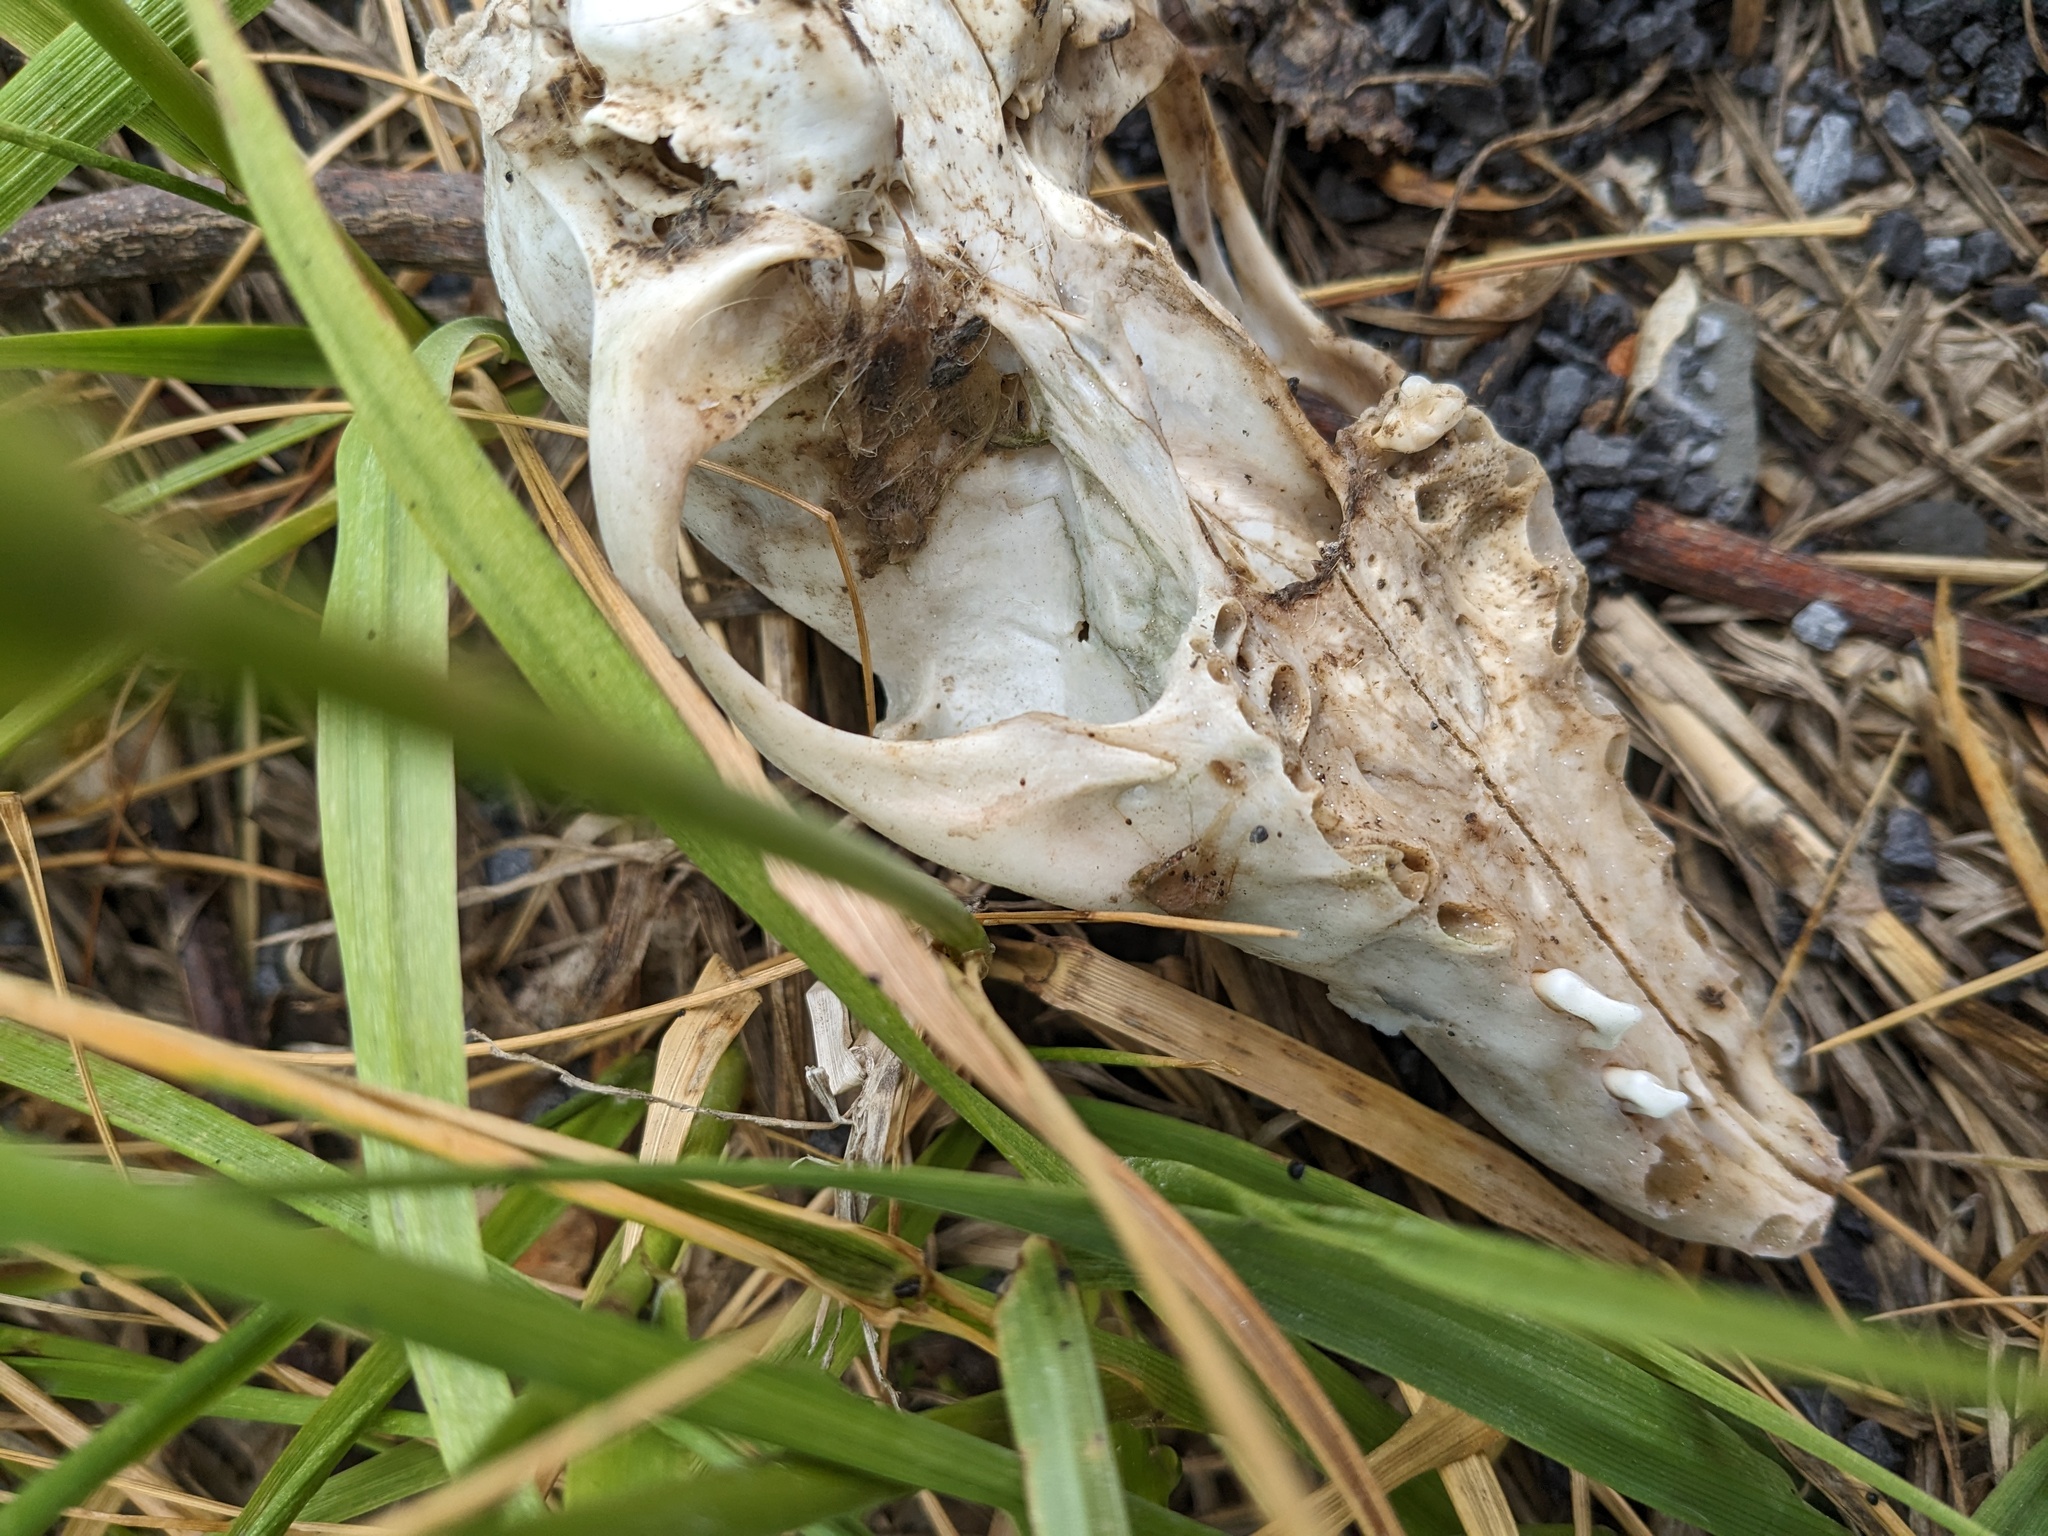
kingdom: Animalia
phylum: Chordata
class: Mammalia
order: Carnivora
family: Canidae
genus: Urocyon
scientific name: Urocyon cinereoargenteus
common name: Gray fox
